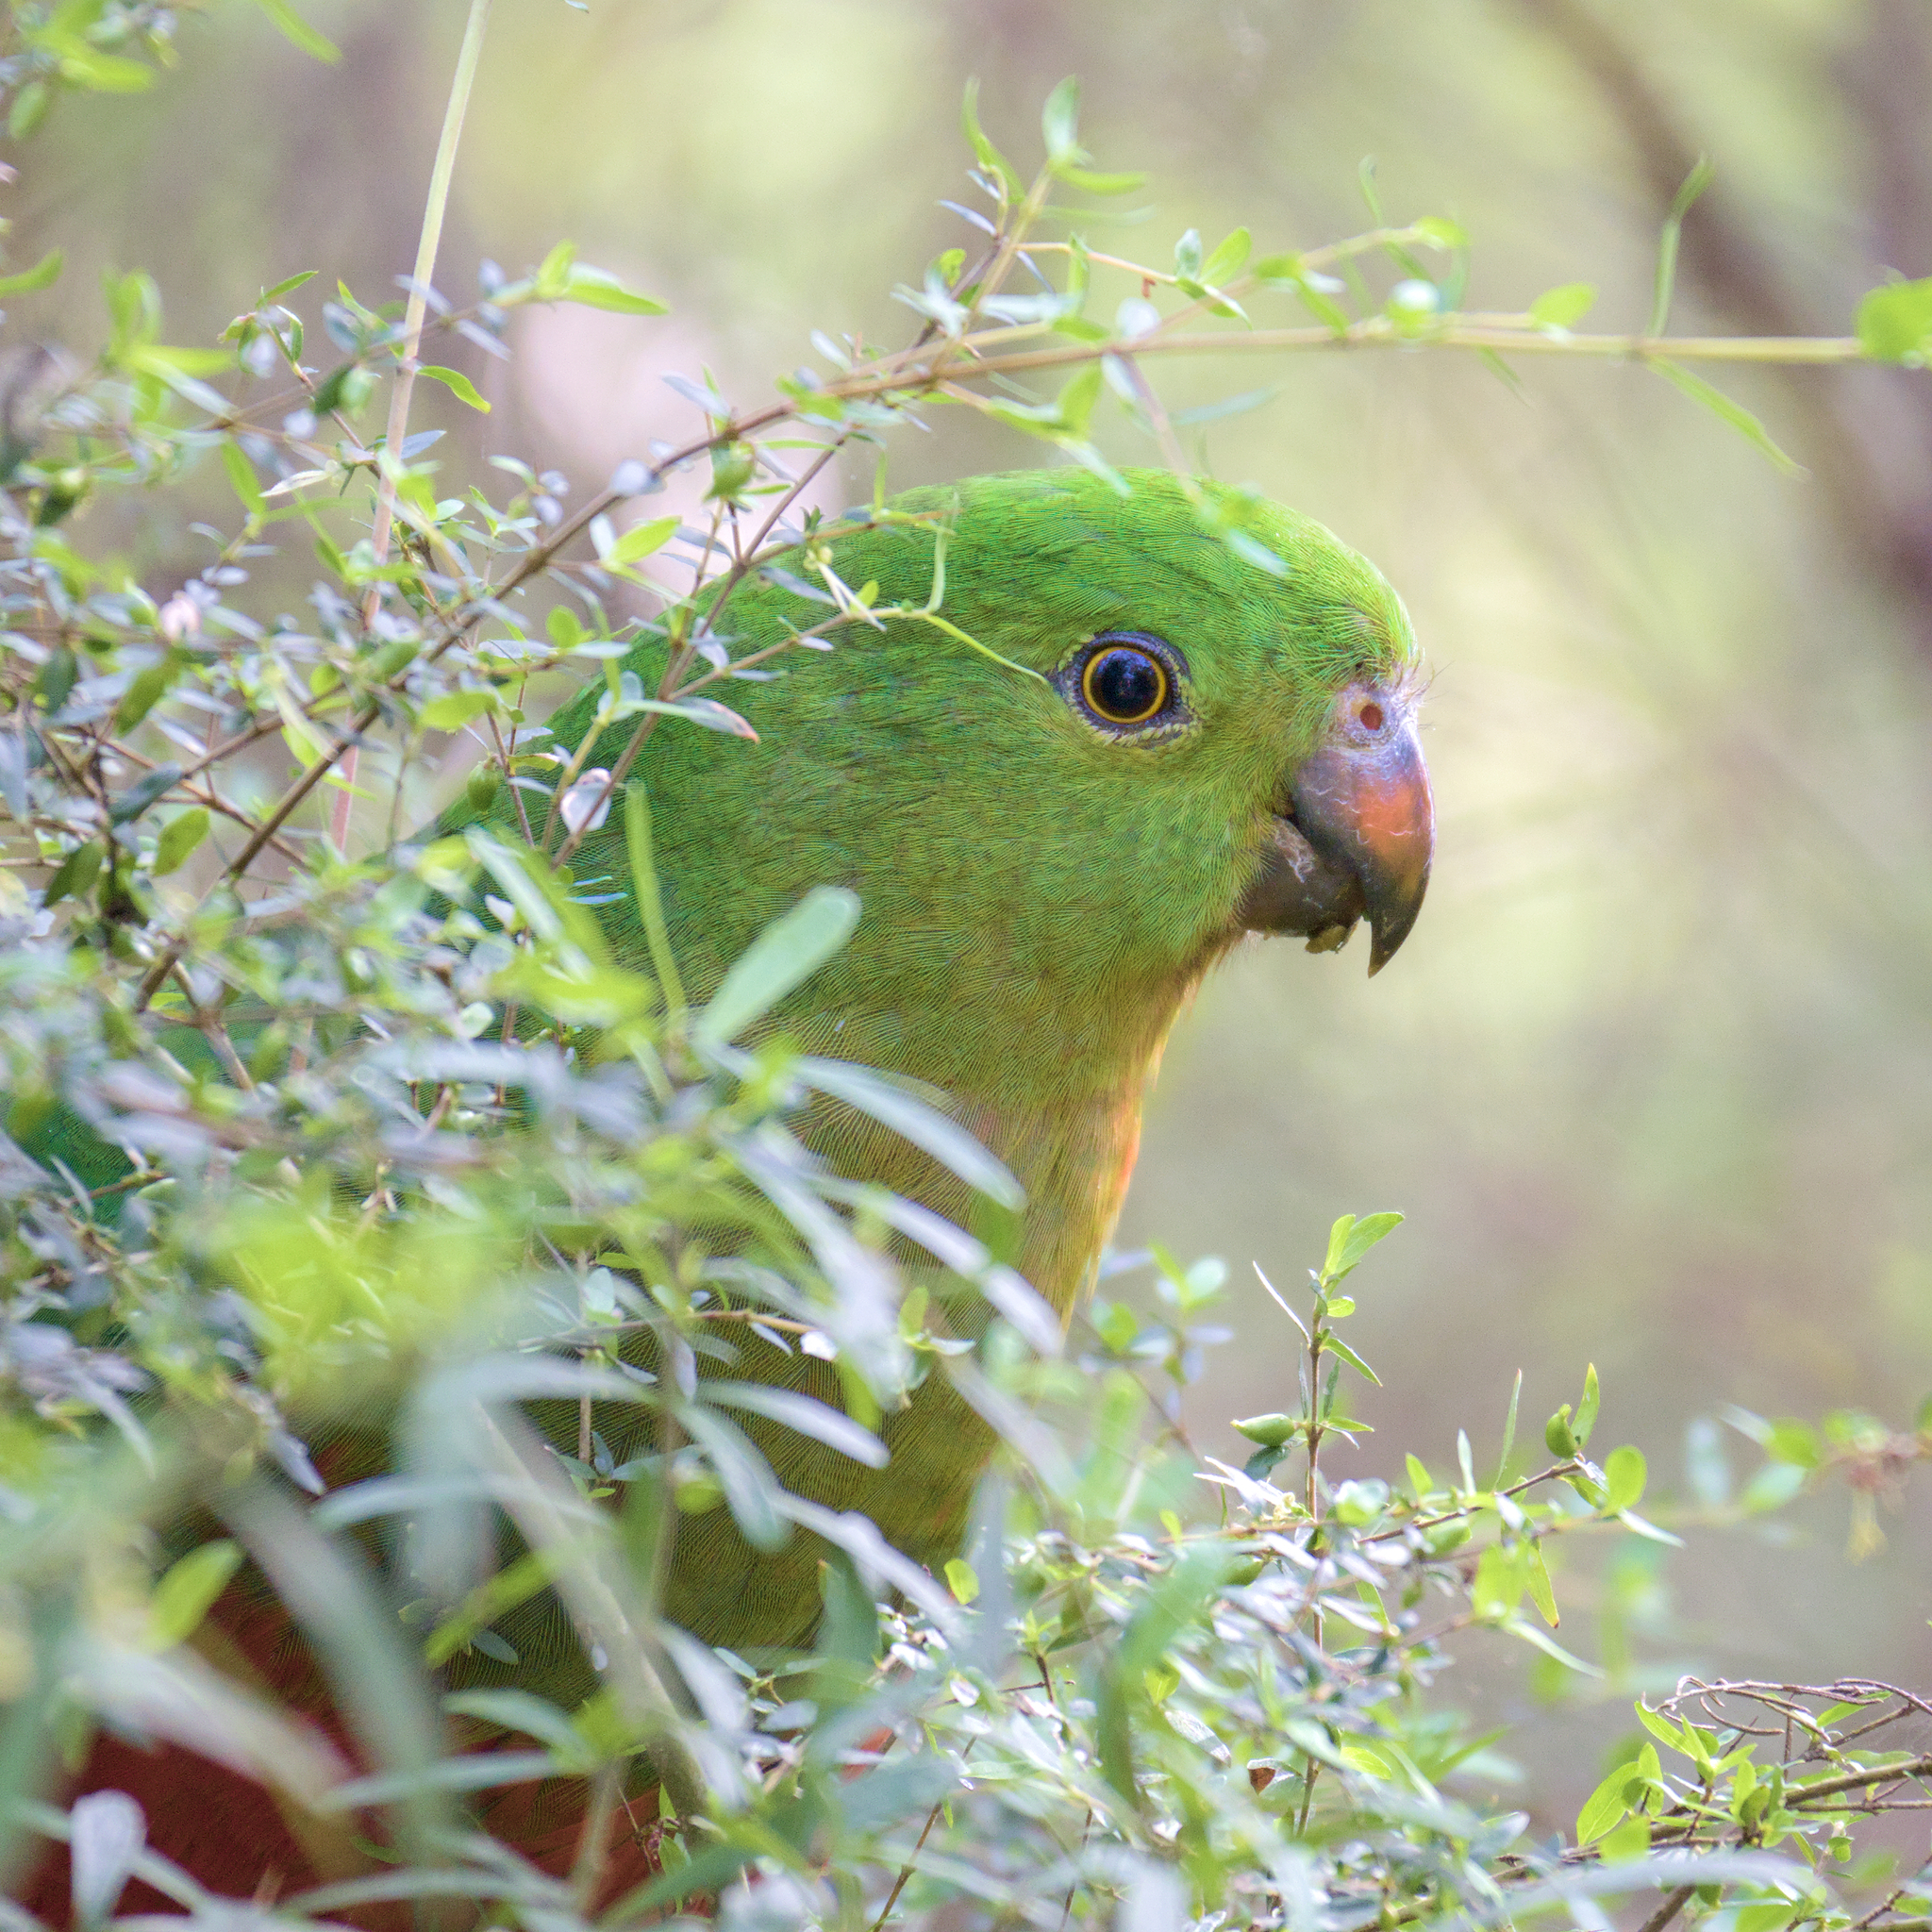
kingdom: Animalia
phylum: Chordata
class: Aves
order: Psittaciformes
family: Psittacidae
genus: Alisterus
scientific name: Alisterus scapularis
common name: Australian king parrot
